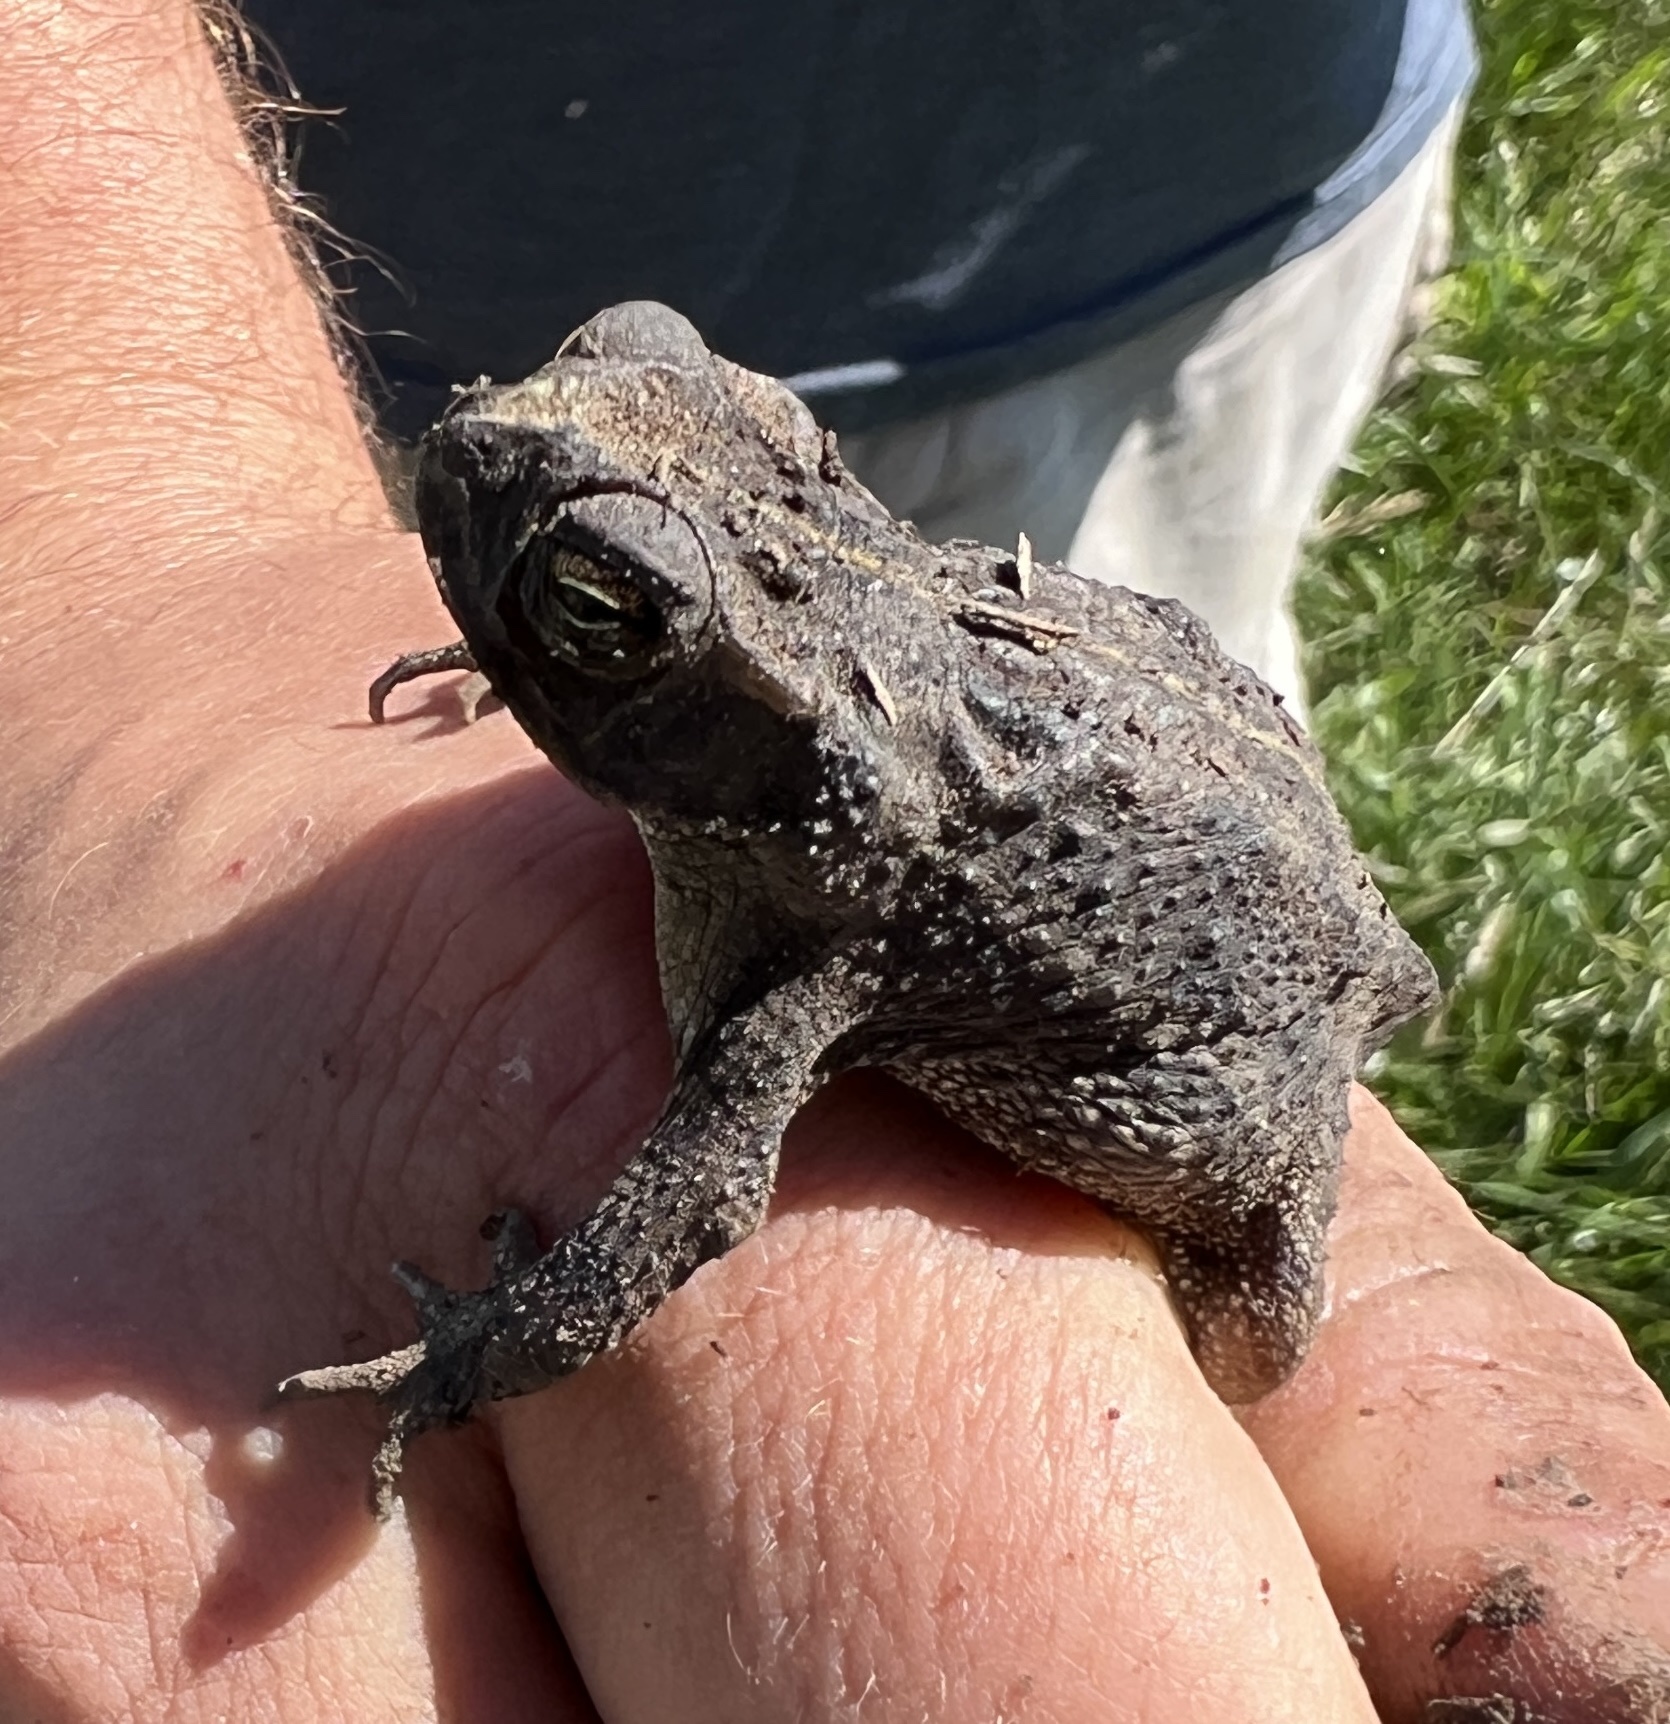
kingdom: Animalia
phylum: Chordata
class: Amphibia
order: Anura
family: Bufonidae
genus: Rhinella
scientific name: Rhinella dorbignyi
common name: D´orbigny’s toad
